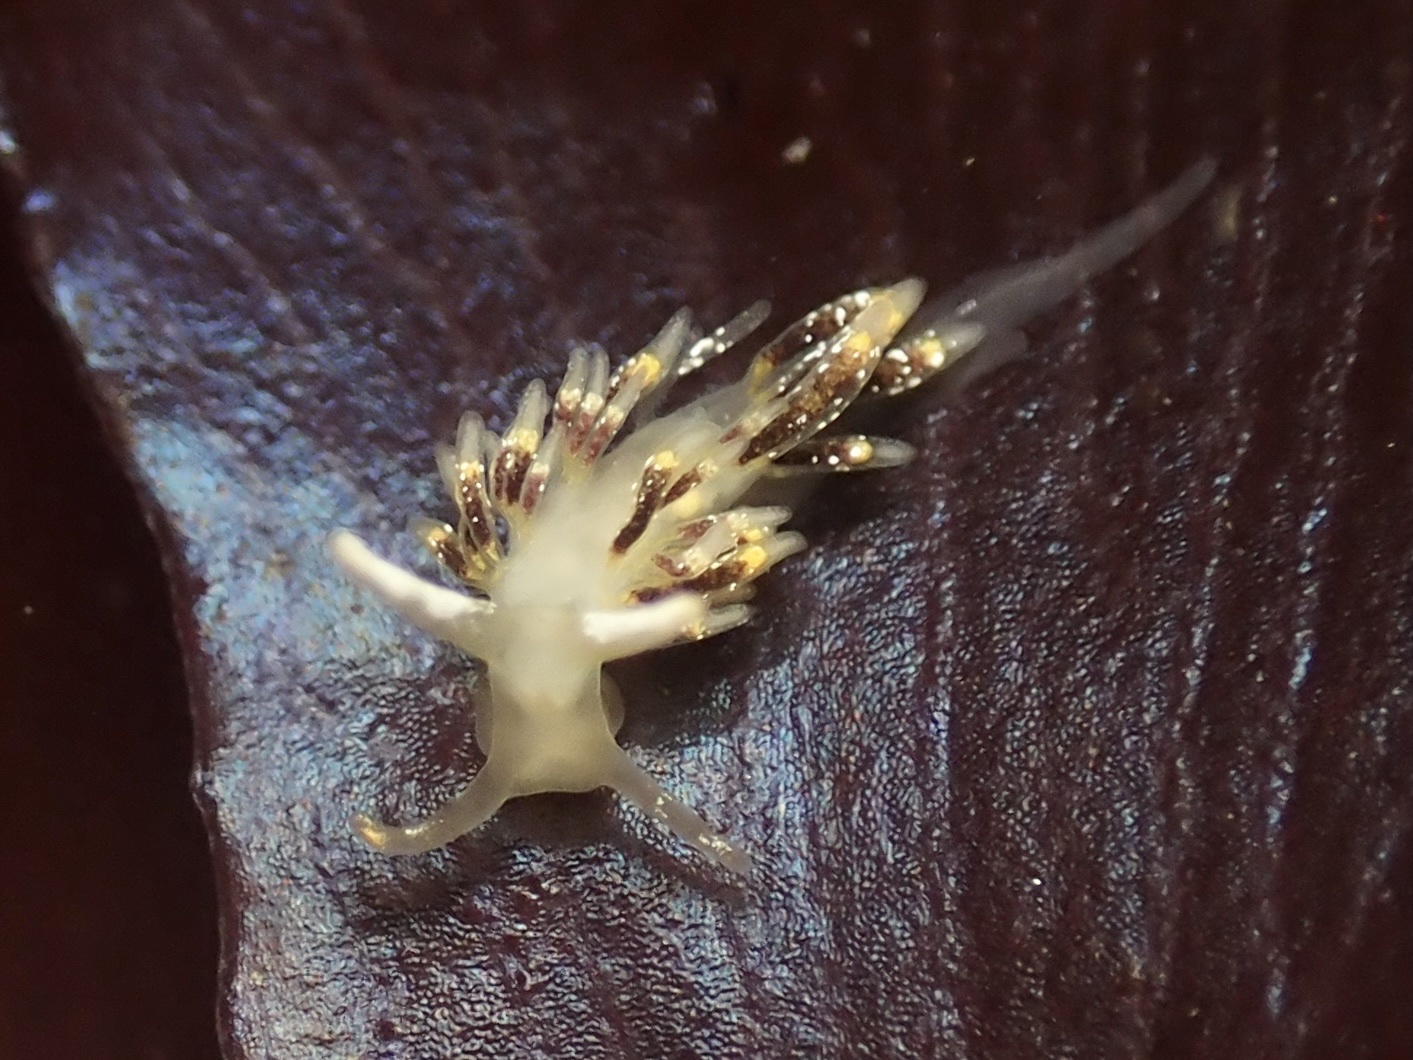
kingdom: Animalia
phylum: Mollusca
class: Gastropoda
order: Nudibranchia
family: Trinchesiidae
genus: Zelentia
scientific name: Zelentia fulgens
